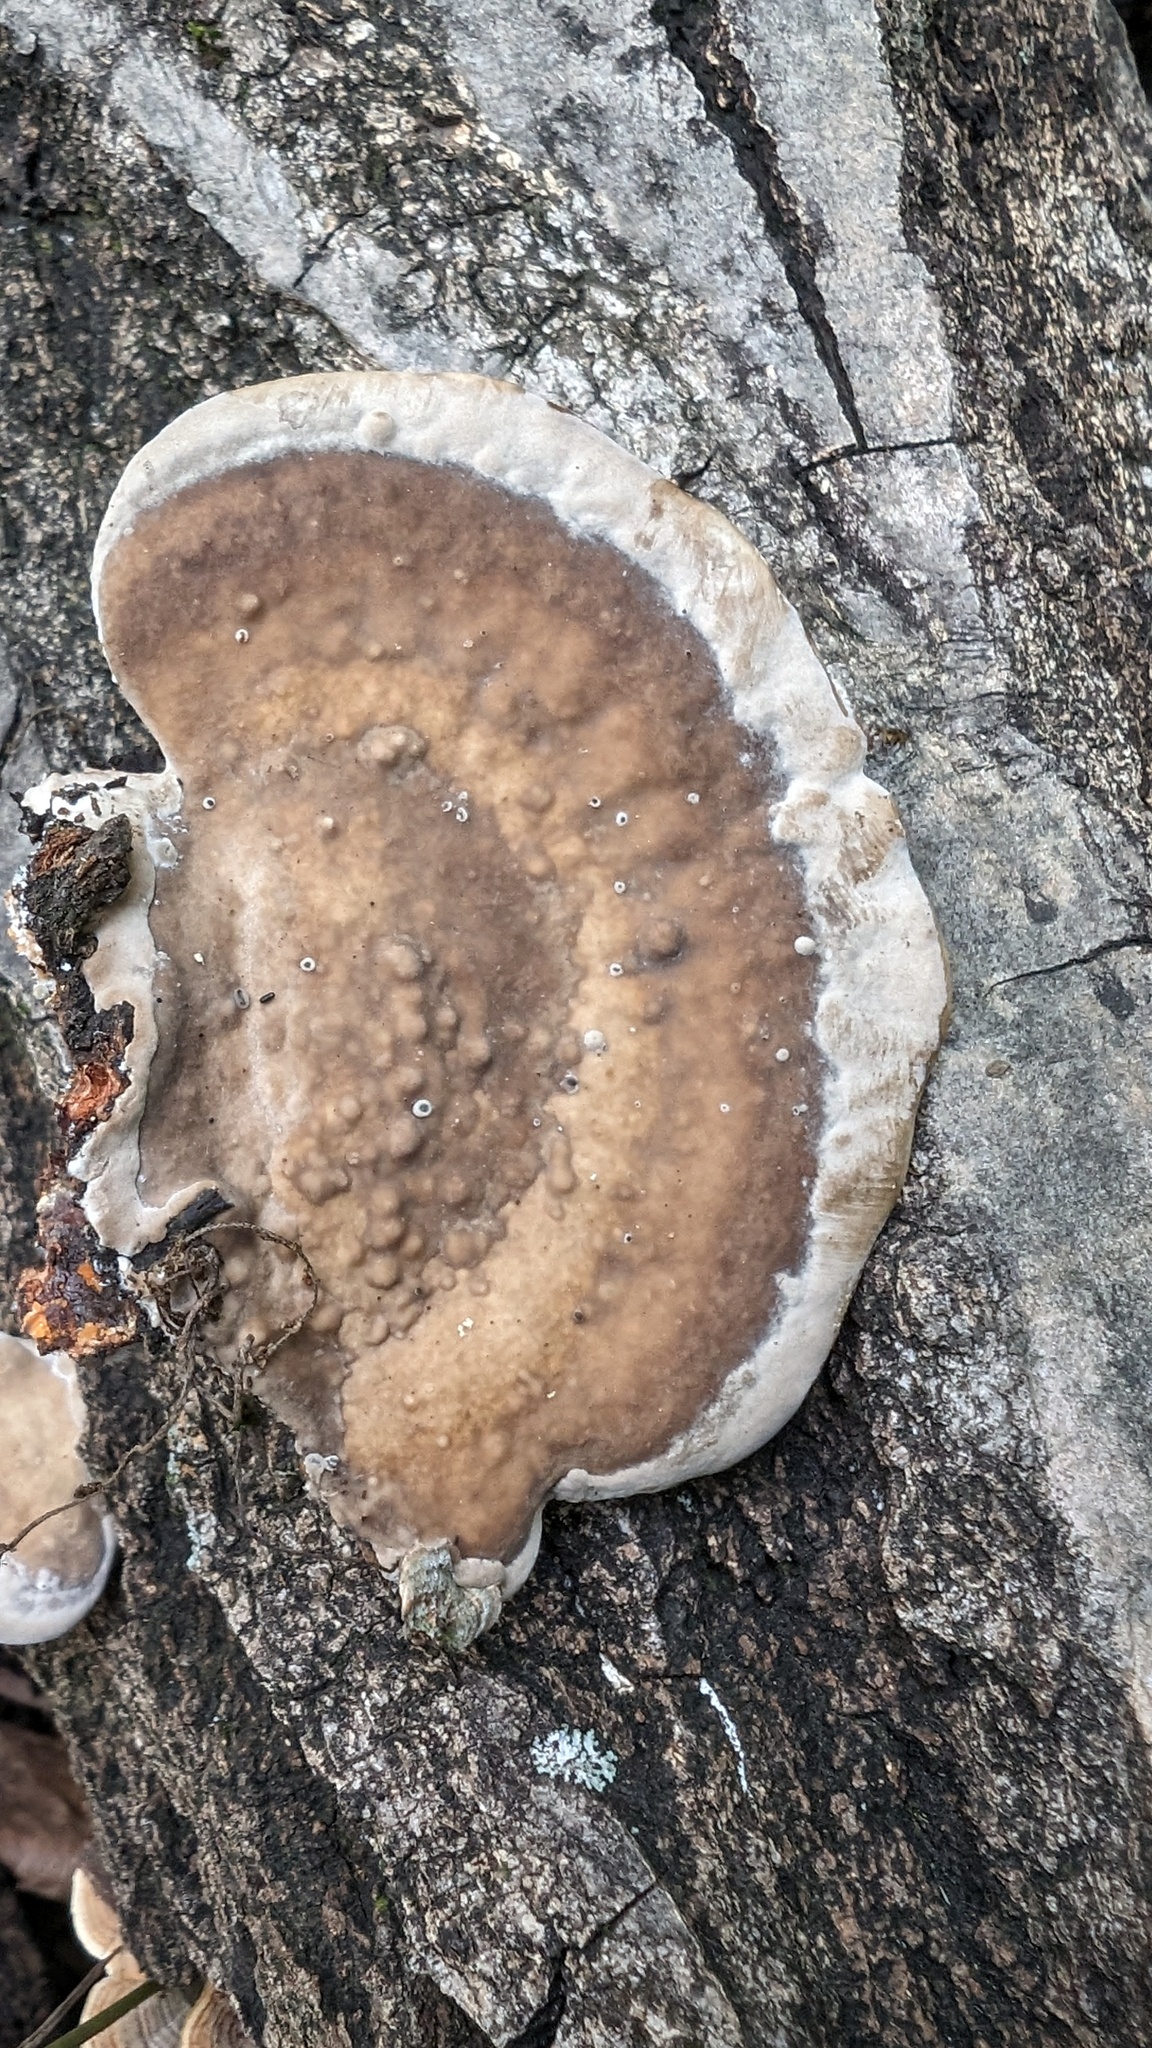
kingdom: Fungi
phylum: Basidiomycota
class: Agaricomycetes
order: Polyporales
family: Polyporaceae
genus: Trametes
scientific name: Trametes orientalis
